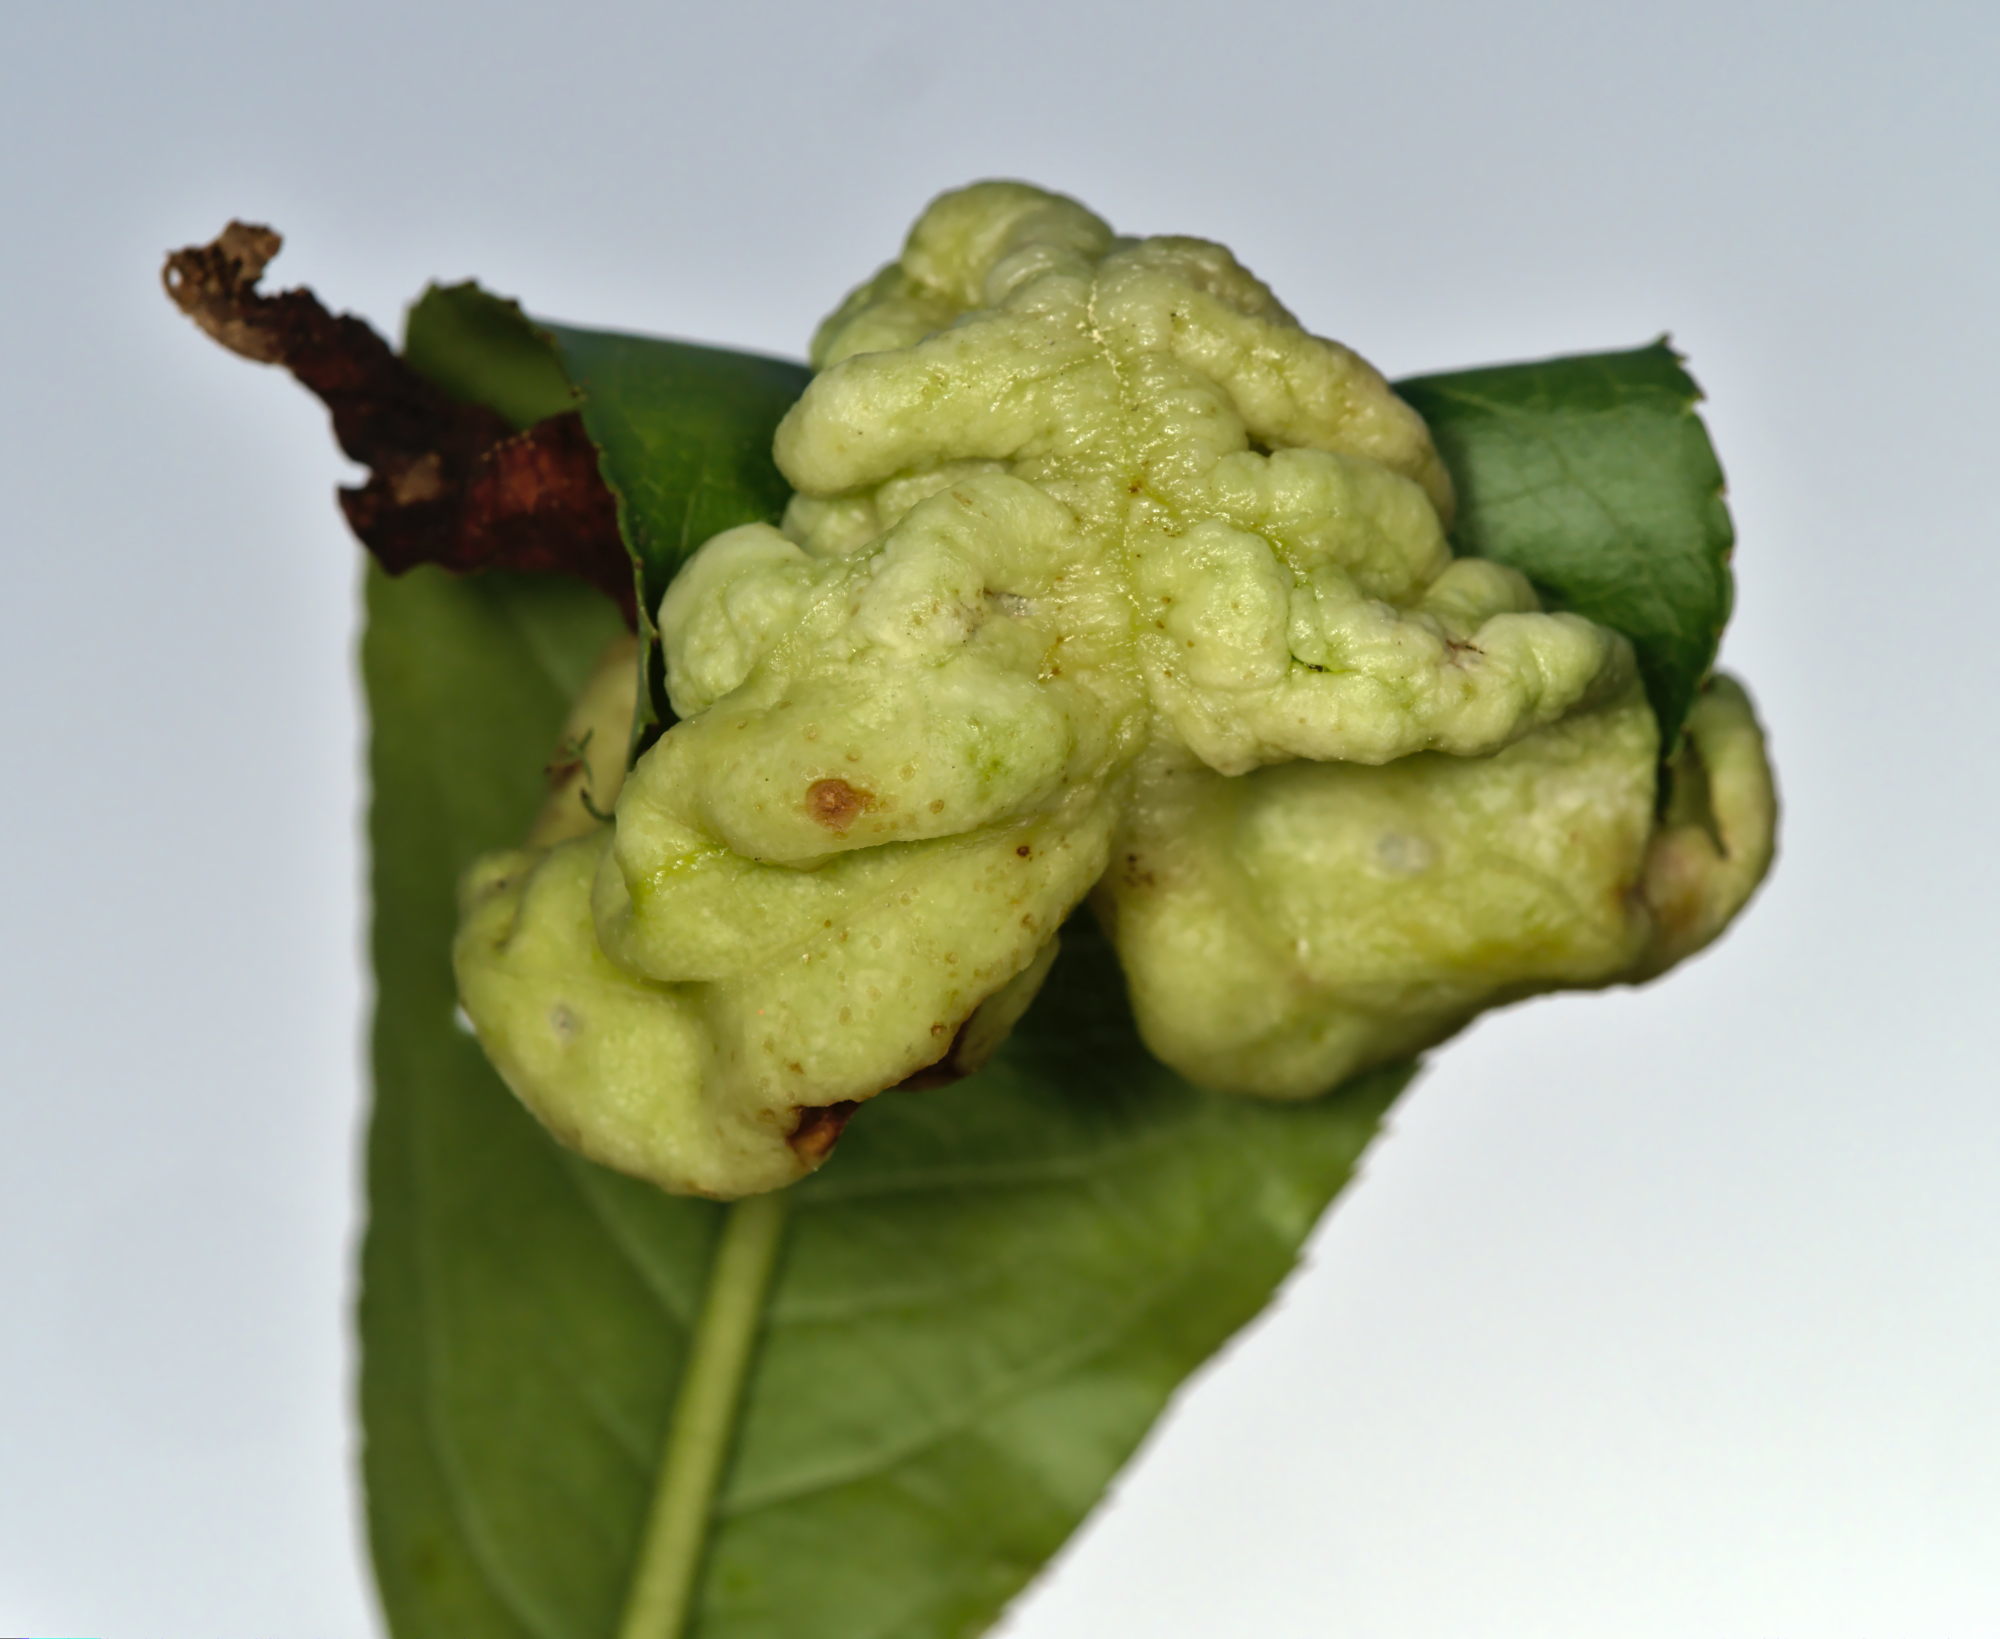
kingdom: Fungi
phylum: Ascomycota
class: Taphrinomycetes
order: Taphrinales
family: Taphrinaceae
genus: Taphrina
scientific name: Taphrina deformans
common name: Peach leaf curl
